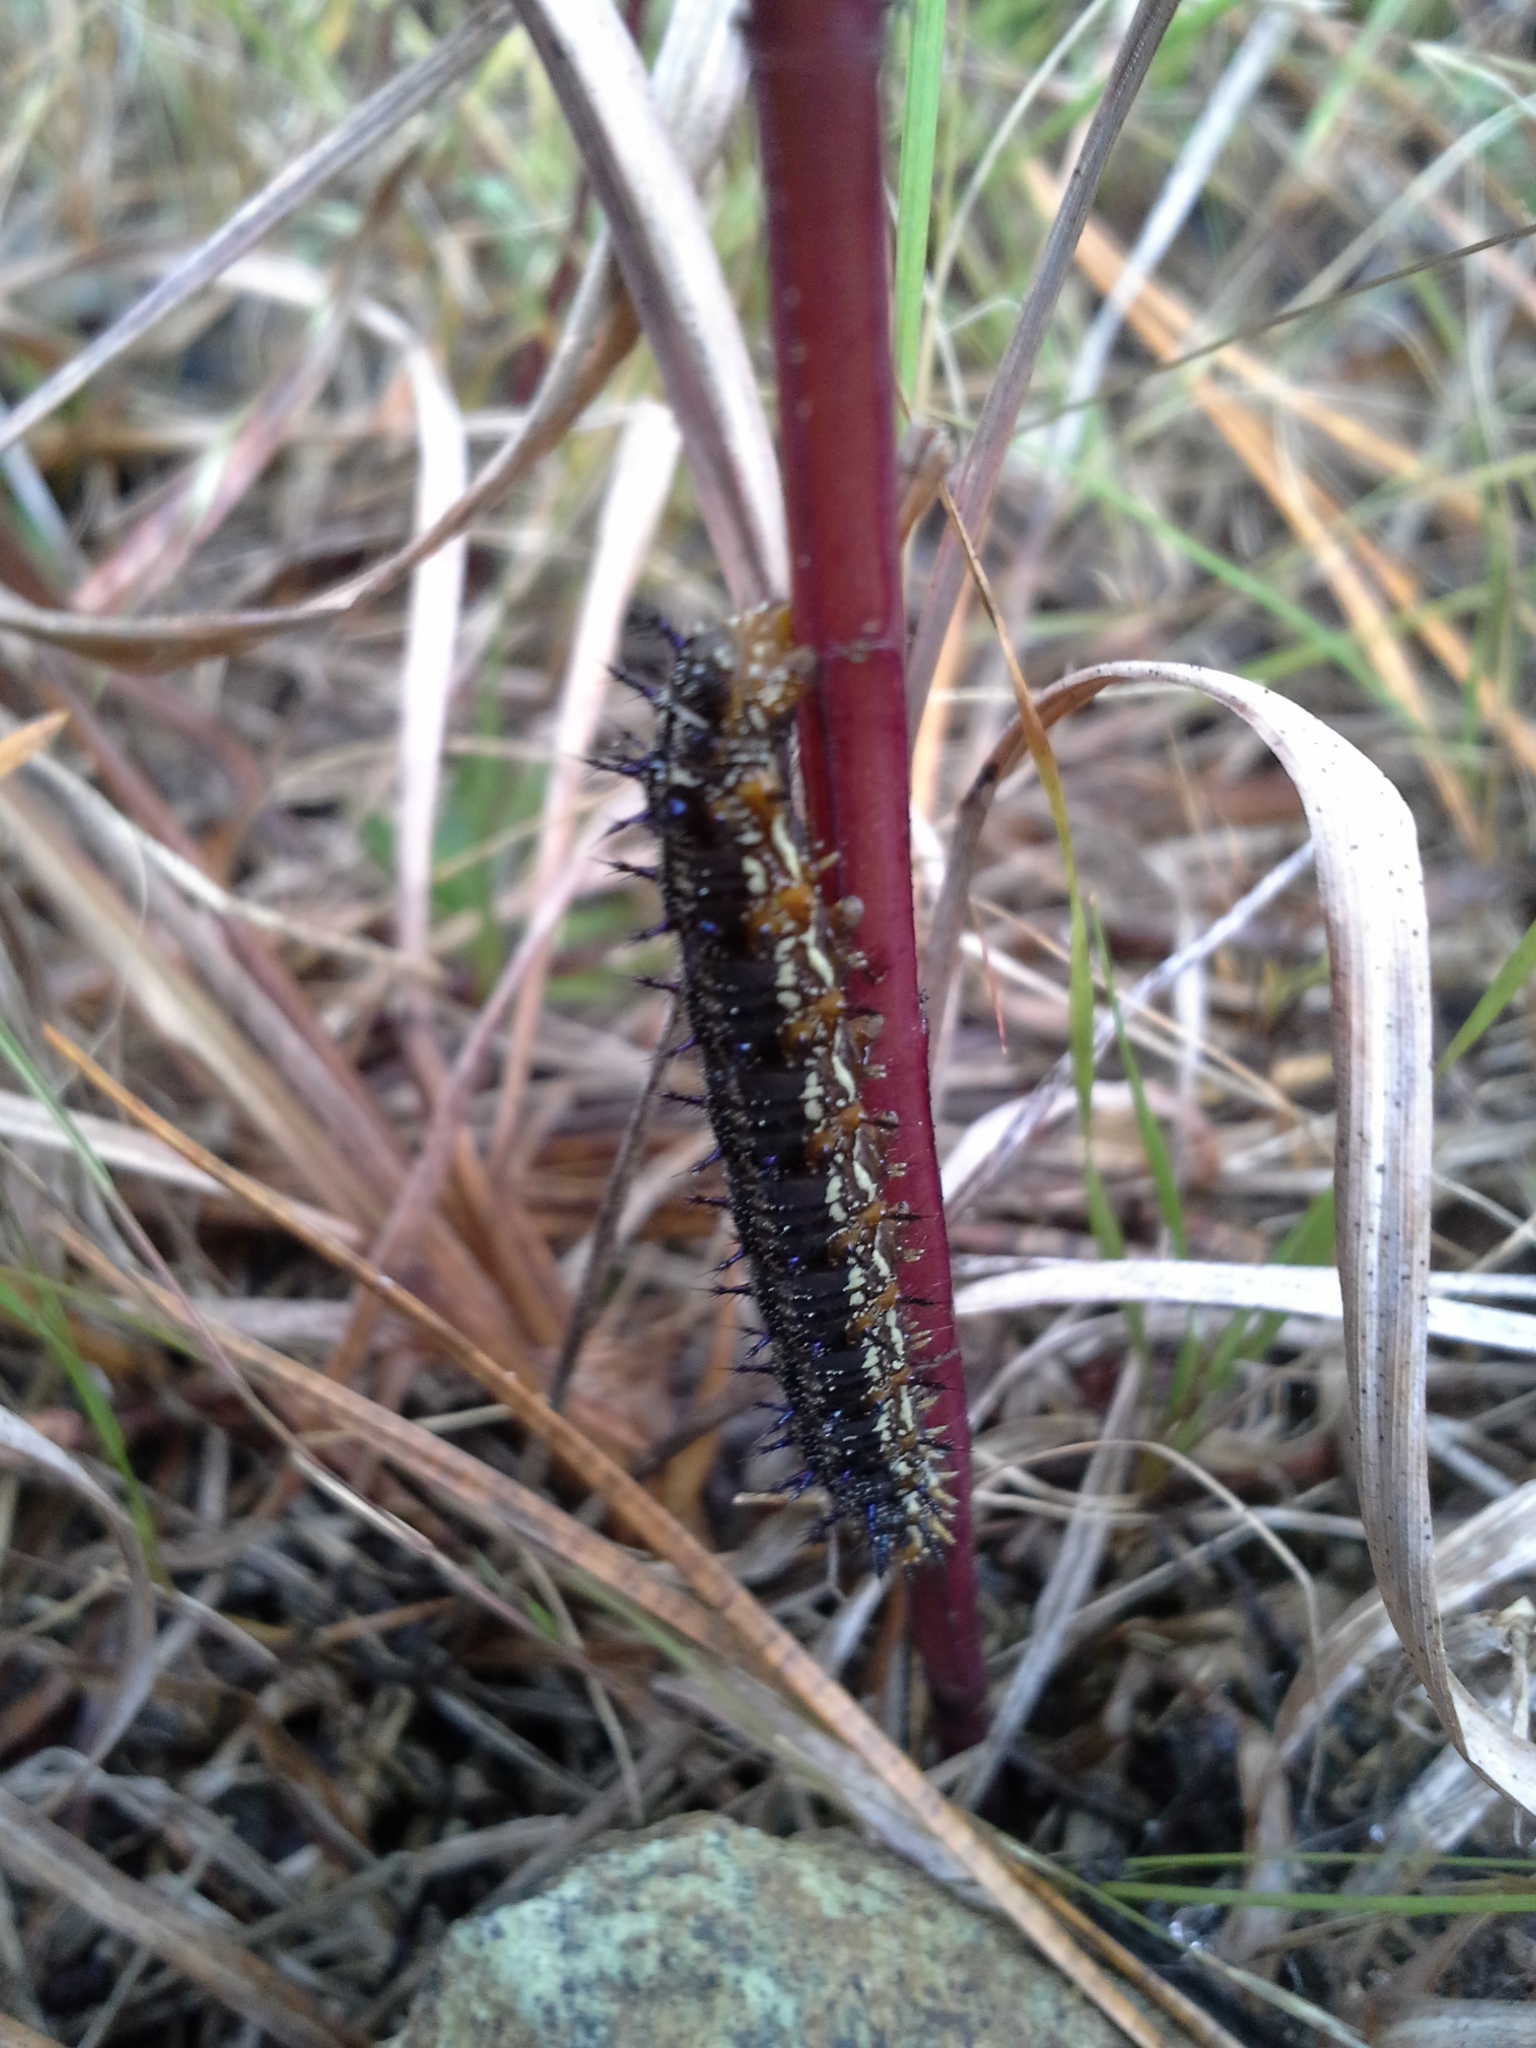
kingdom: Animalia
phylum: Arthropoda
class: Insecta
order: Lepidoptera
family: Nymphalidae
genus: Junonia
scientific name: Junonia coenia
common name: Common buckeye
